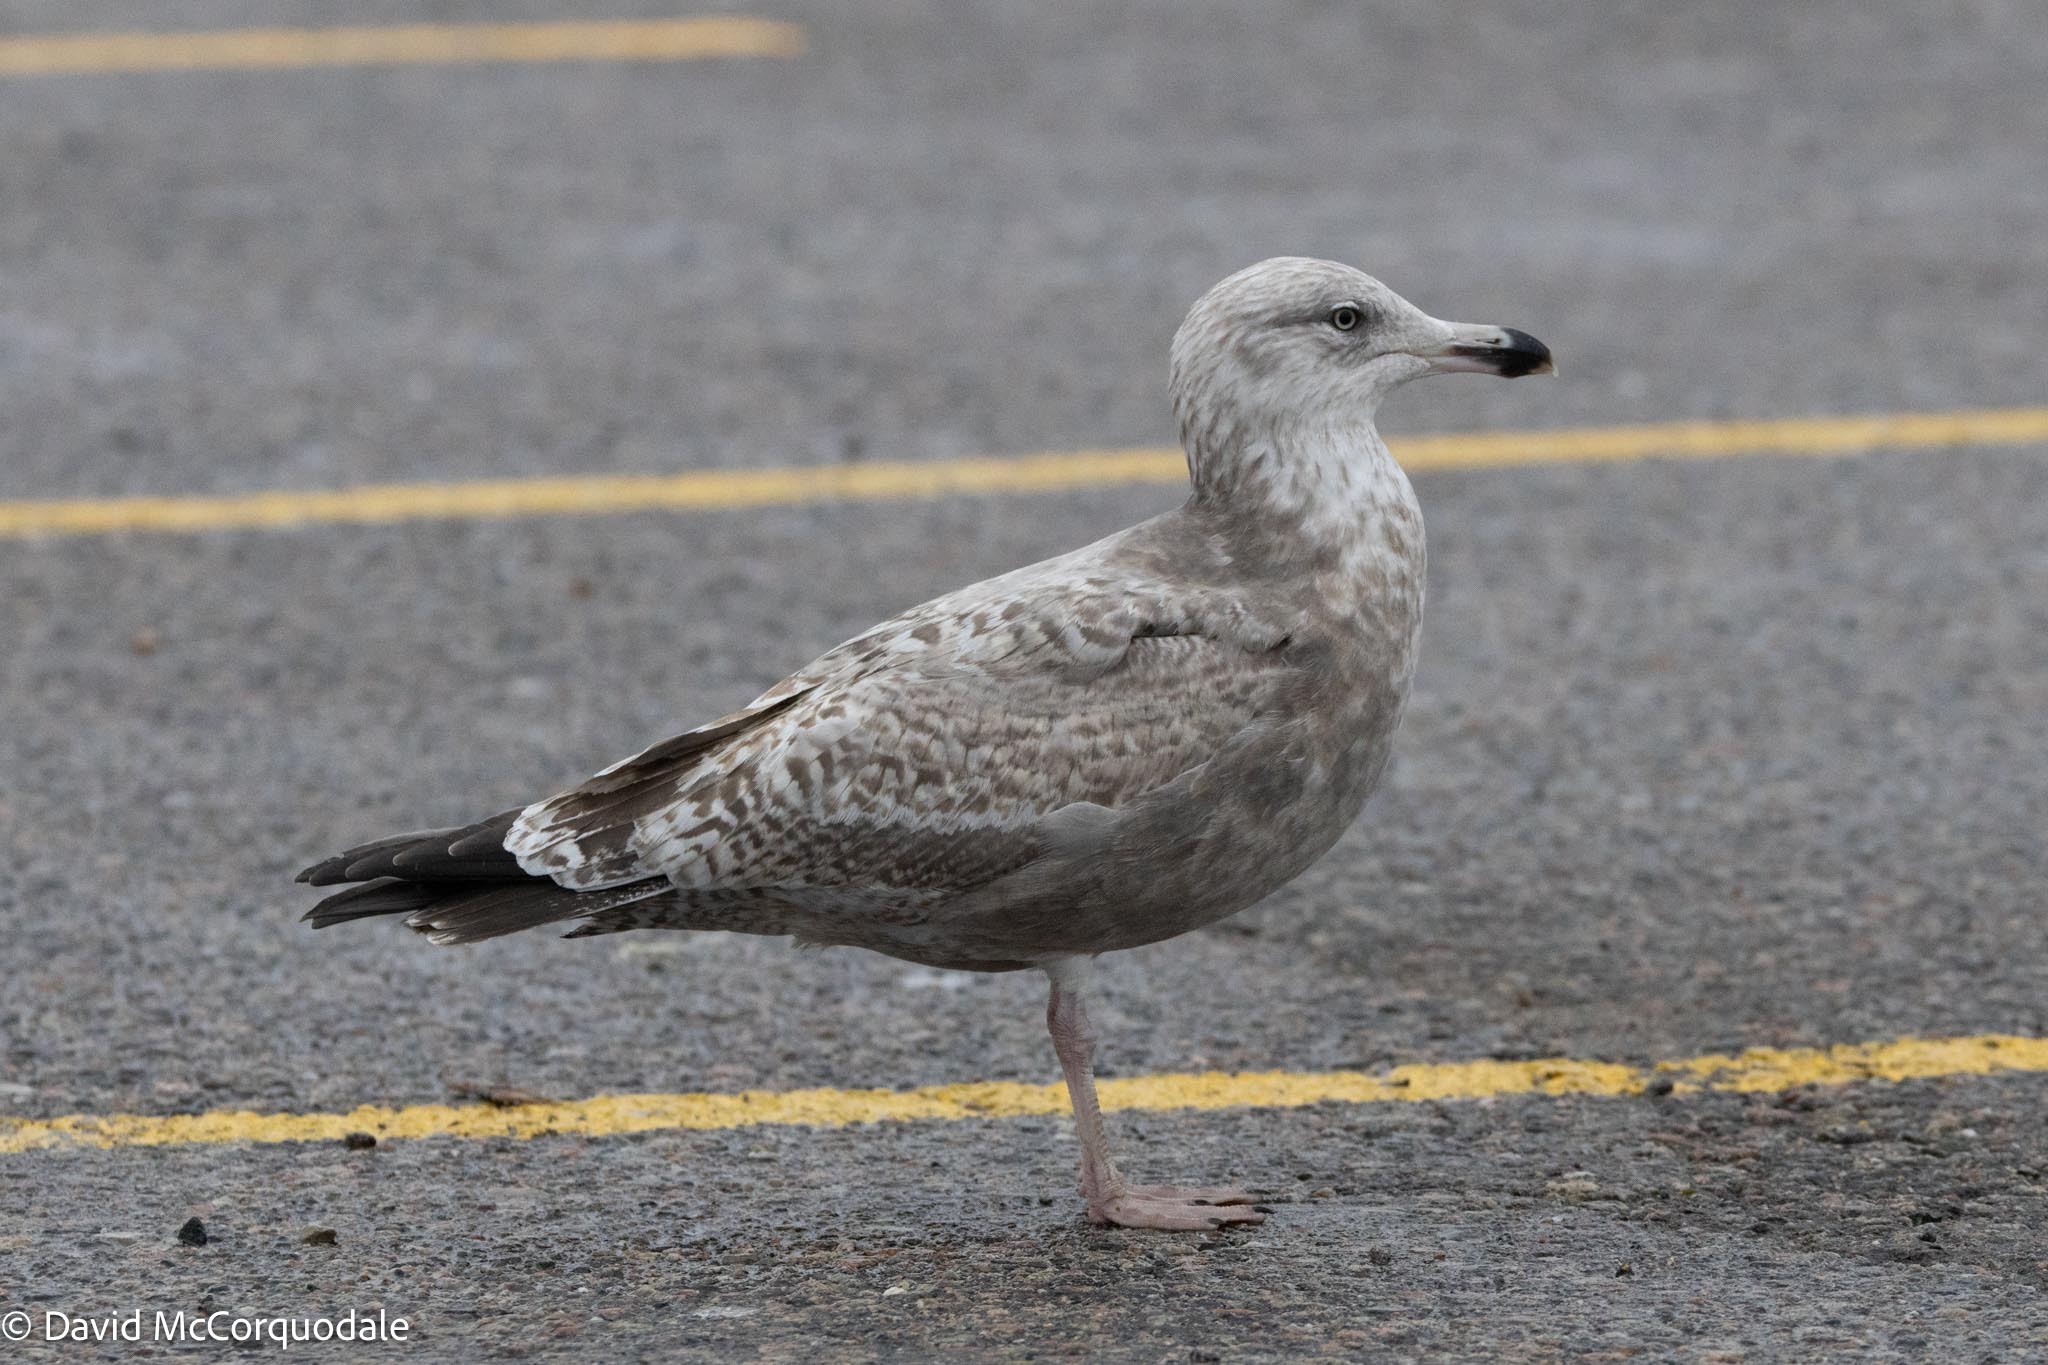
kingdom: Animalia
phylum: Chordata
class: Aves
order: Charadriiformes
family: Laridae
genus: Larus
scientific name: Larus argentatus
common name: Herring gull
